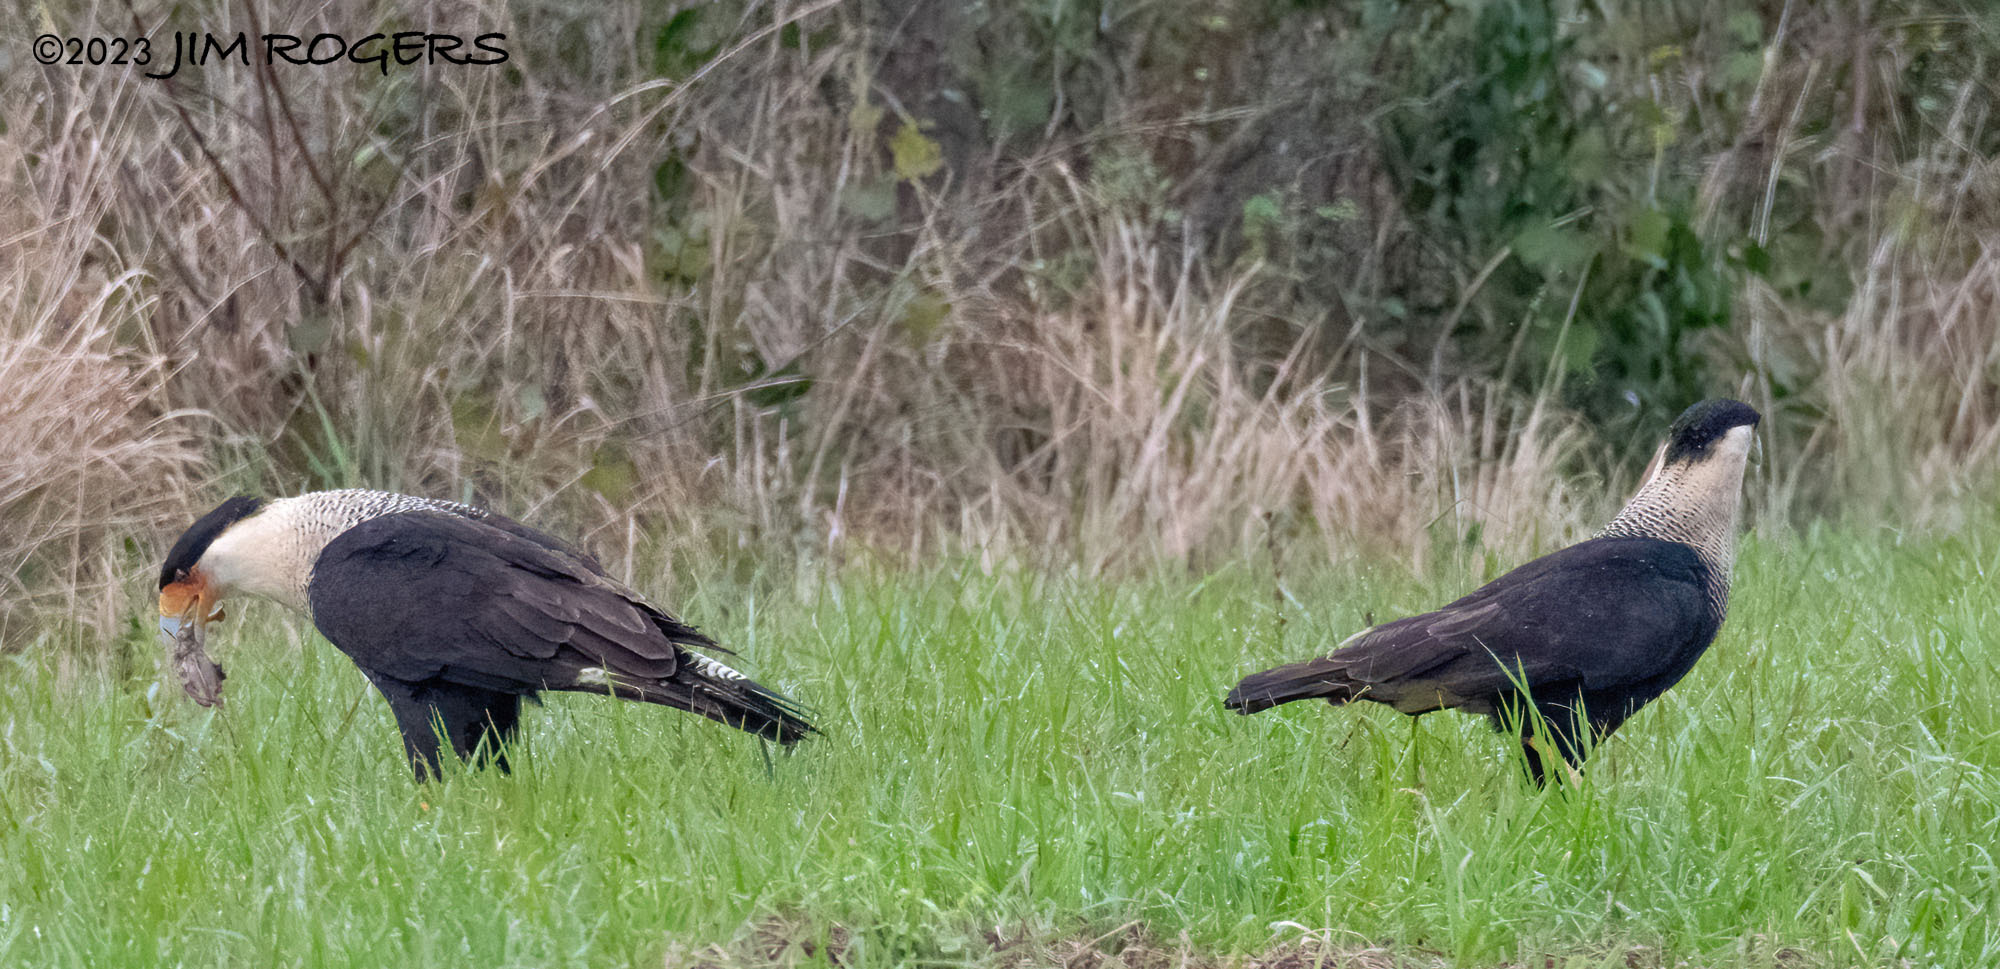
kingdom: Animalia
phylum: Chordata
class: Aves
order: Falconiformes
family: Falconidae
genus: Caracara
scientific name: Caracara plancus
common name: Southern caracara
